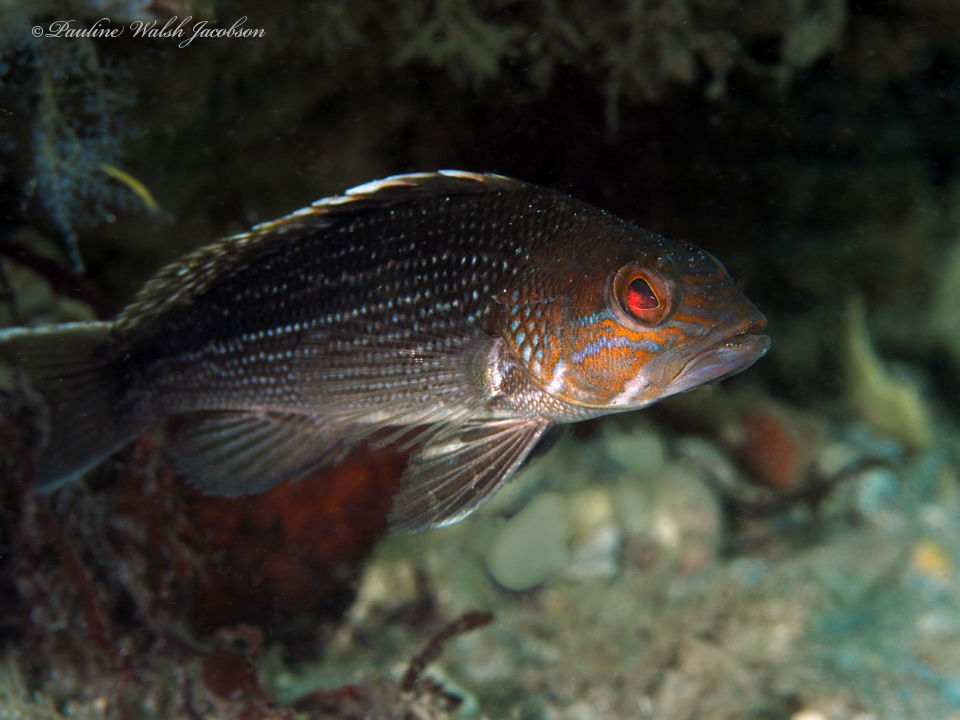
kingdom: Animalia
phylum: Chordata
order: Perciformes
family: Serranidae
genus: Centropristis
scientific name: Centropristis striata
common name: Black sea bass
